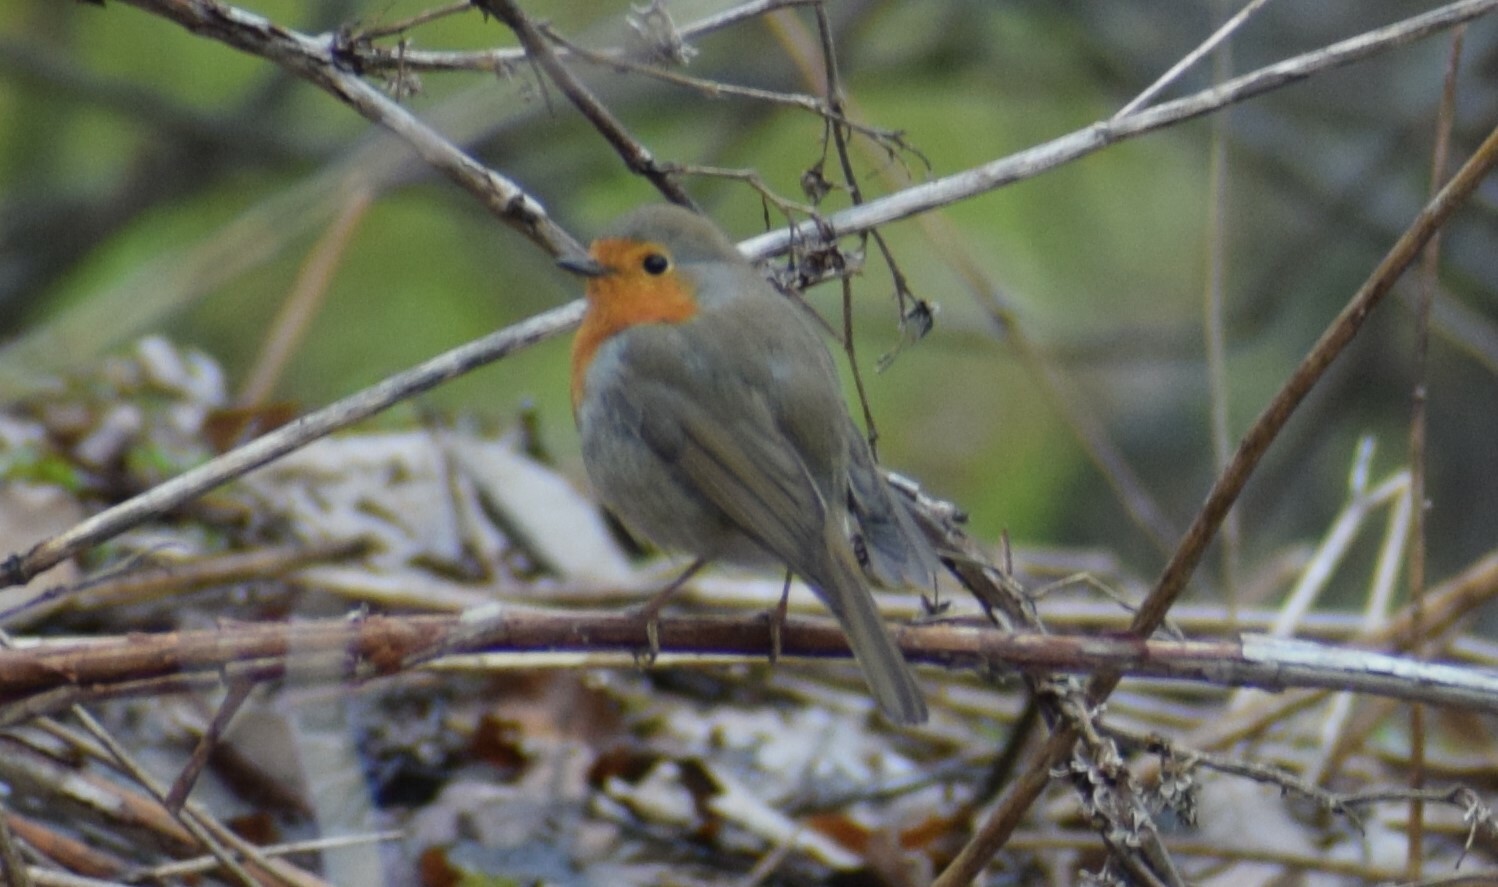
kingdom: Animalia
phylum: Chordata
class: Aves
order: Passeriformes
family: Muscicapidae
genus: Erithacus
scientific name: Erithacus rubecula
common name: European robin
